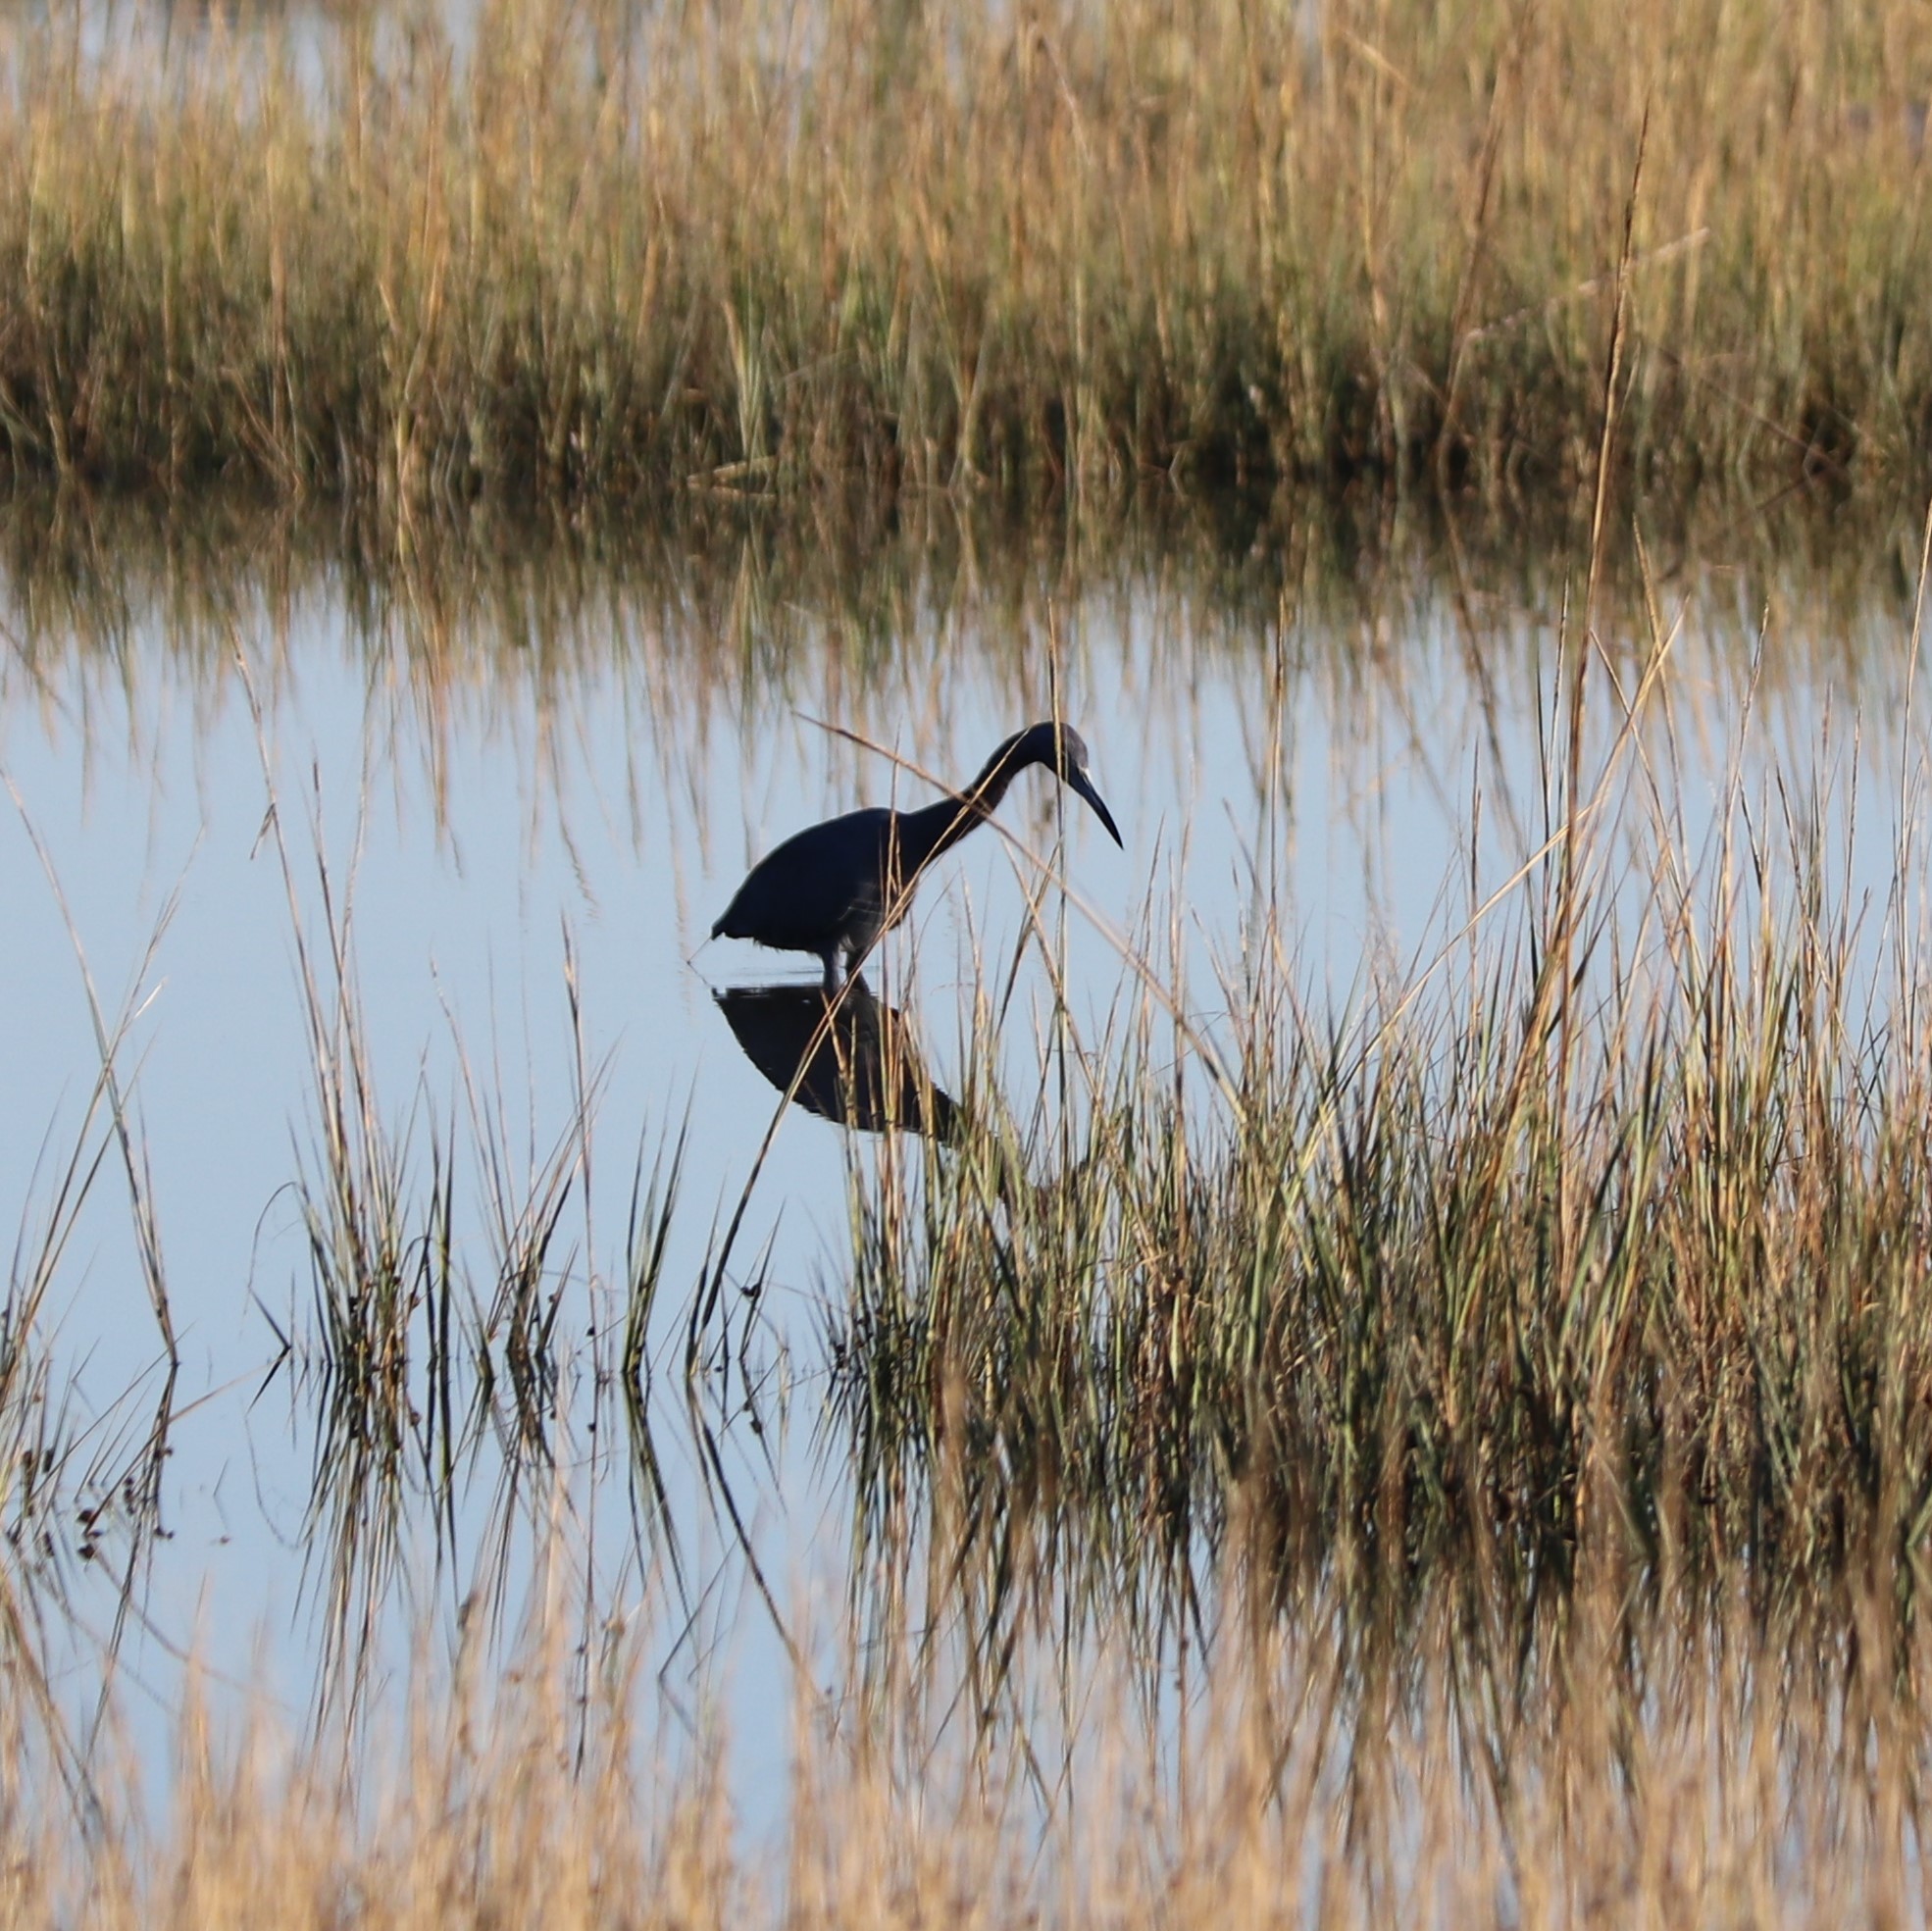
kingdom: Animalia
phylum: Chordata
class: Aves
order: Pelecaniformes
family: Ardeidae
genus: Egretta
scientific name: Egretta caerulea
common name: Little blue heron
